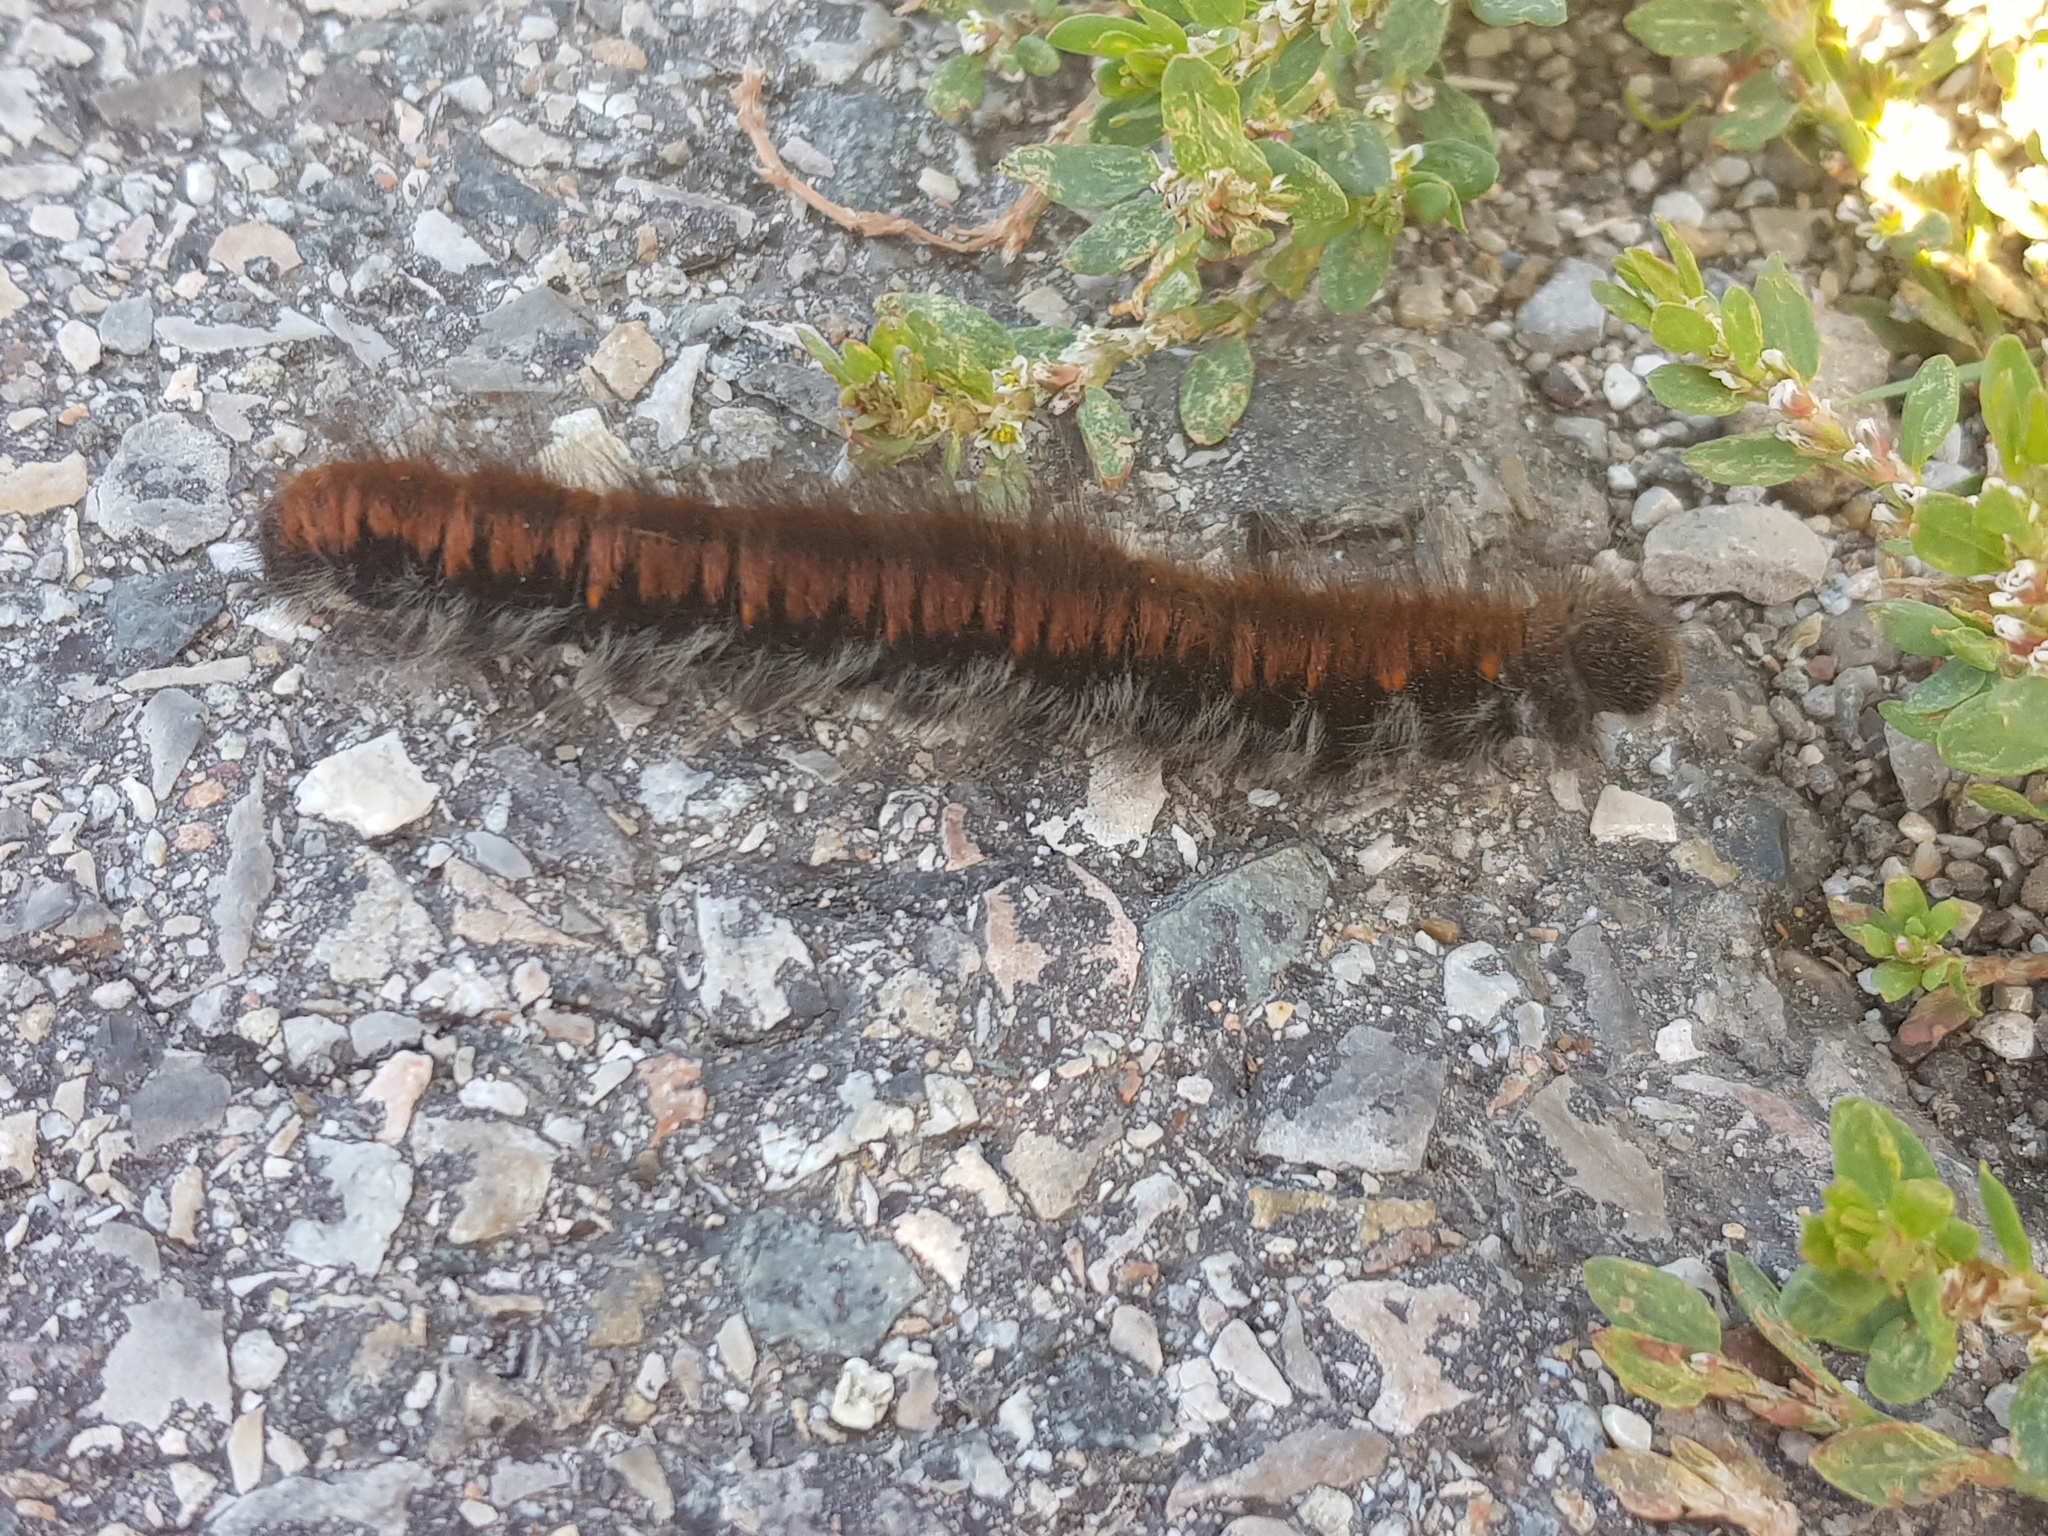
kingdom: Animalia
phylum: Arthropoda
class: Insecta
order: Lepidoptera
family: Lasiocampidae
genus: Macrothylacia
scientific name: Macrothylacia rubi
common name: Fox moth
